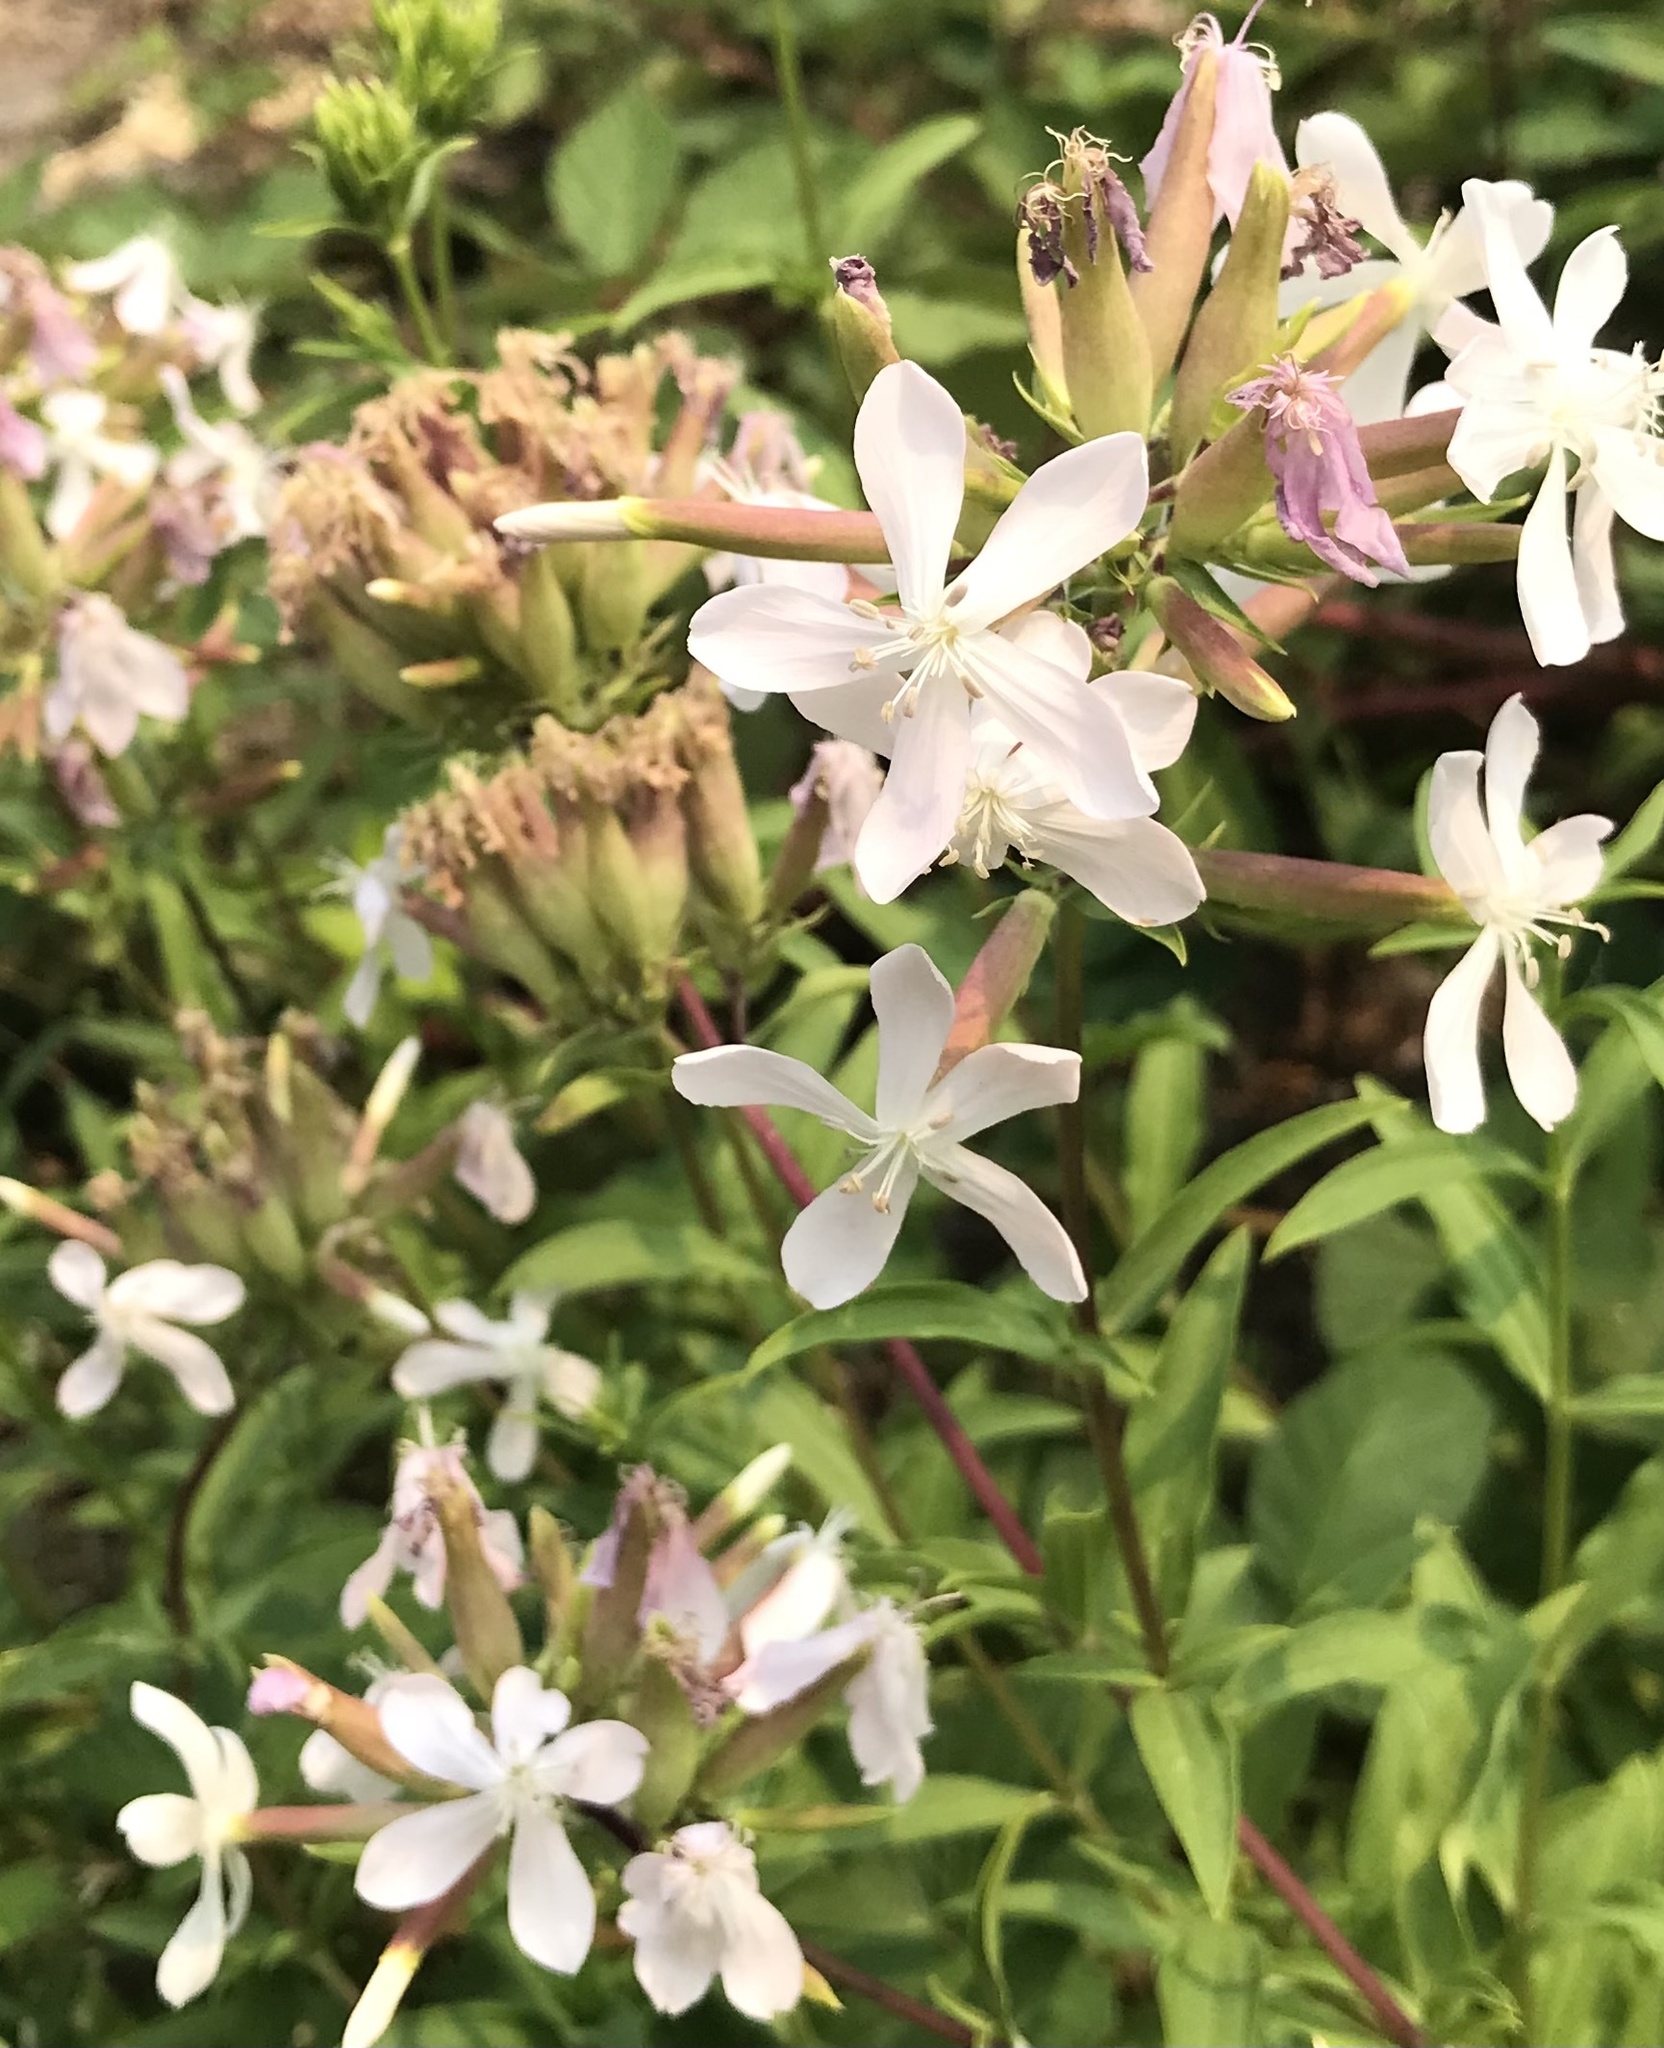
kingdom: Plantae
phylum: Tracheophyta
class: Magnoliopsida
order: Caryophyllales
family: Caryophyllaceae
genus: Saponaria
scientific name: Saponaria officinalis
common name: Soapwort
